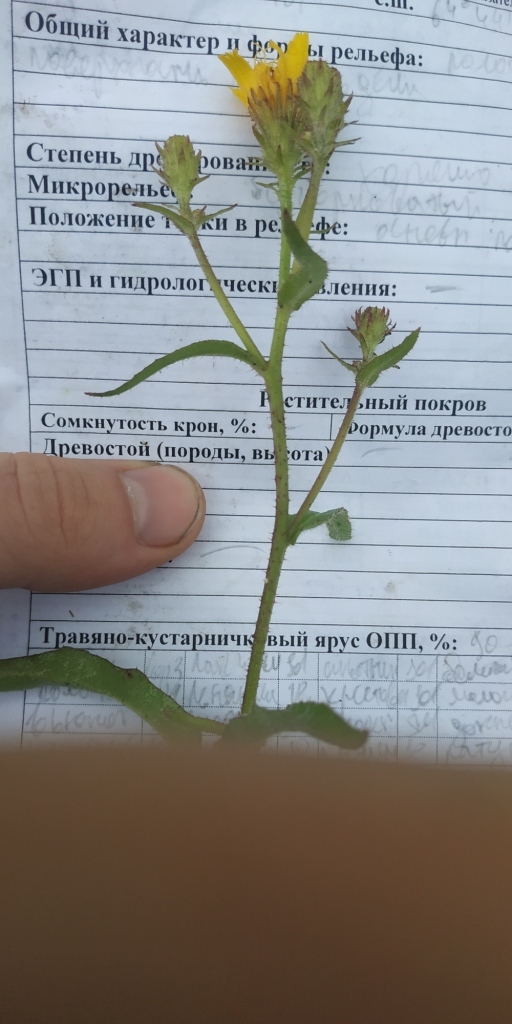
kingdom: Plantae
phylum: Tracheophyta
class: Magnoliopsida
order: Asterales
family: Asteraceae
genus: Picris
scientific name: Picris hieracioides
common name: Hawkweed oxtongue
